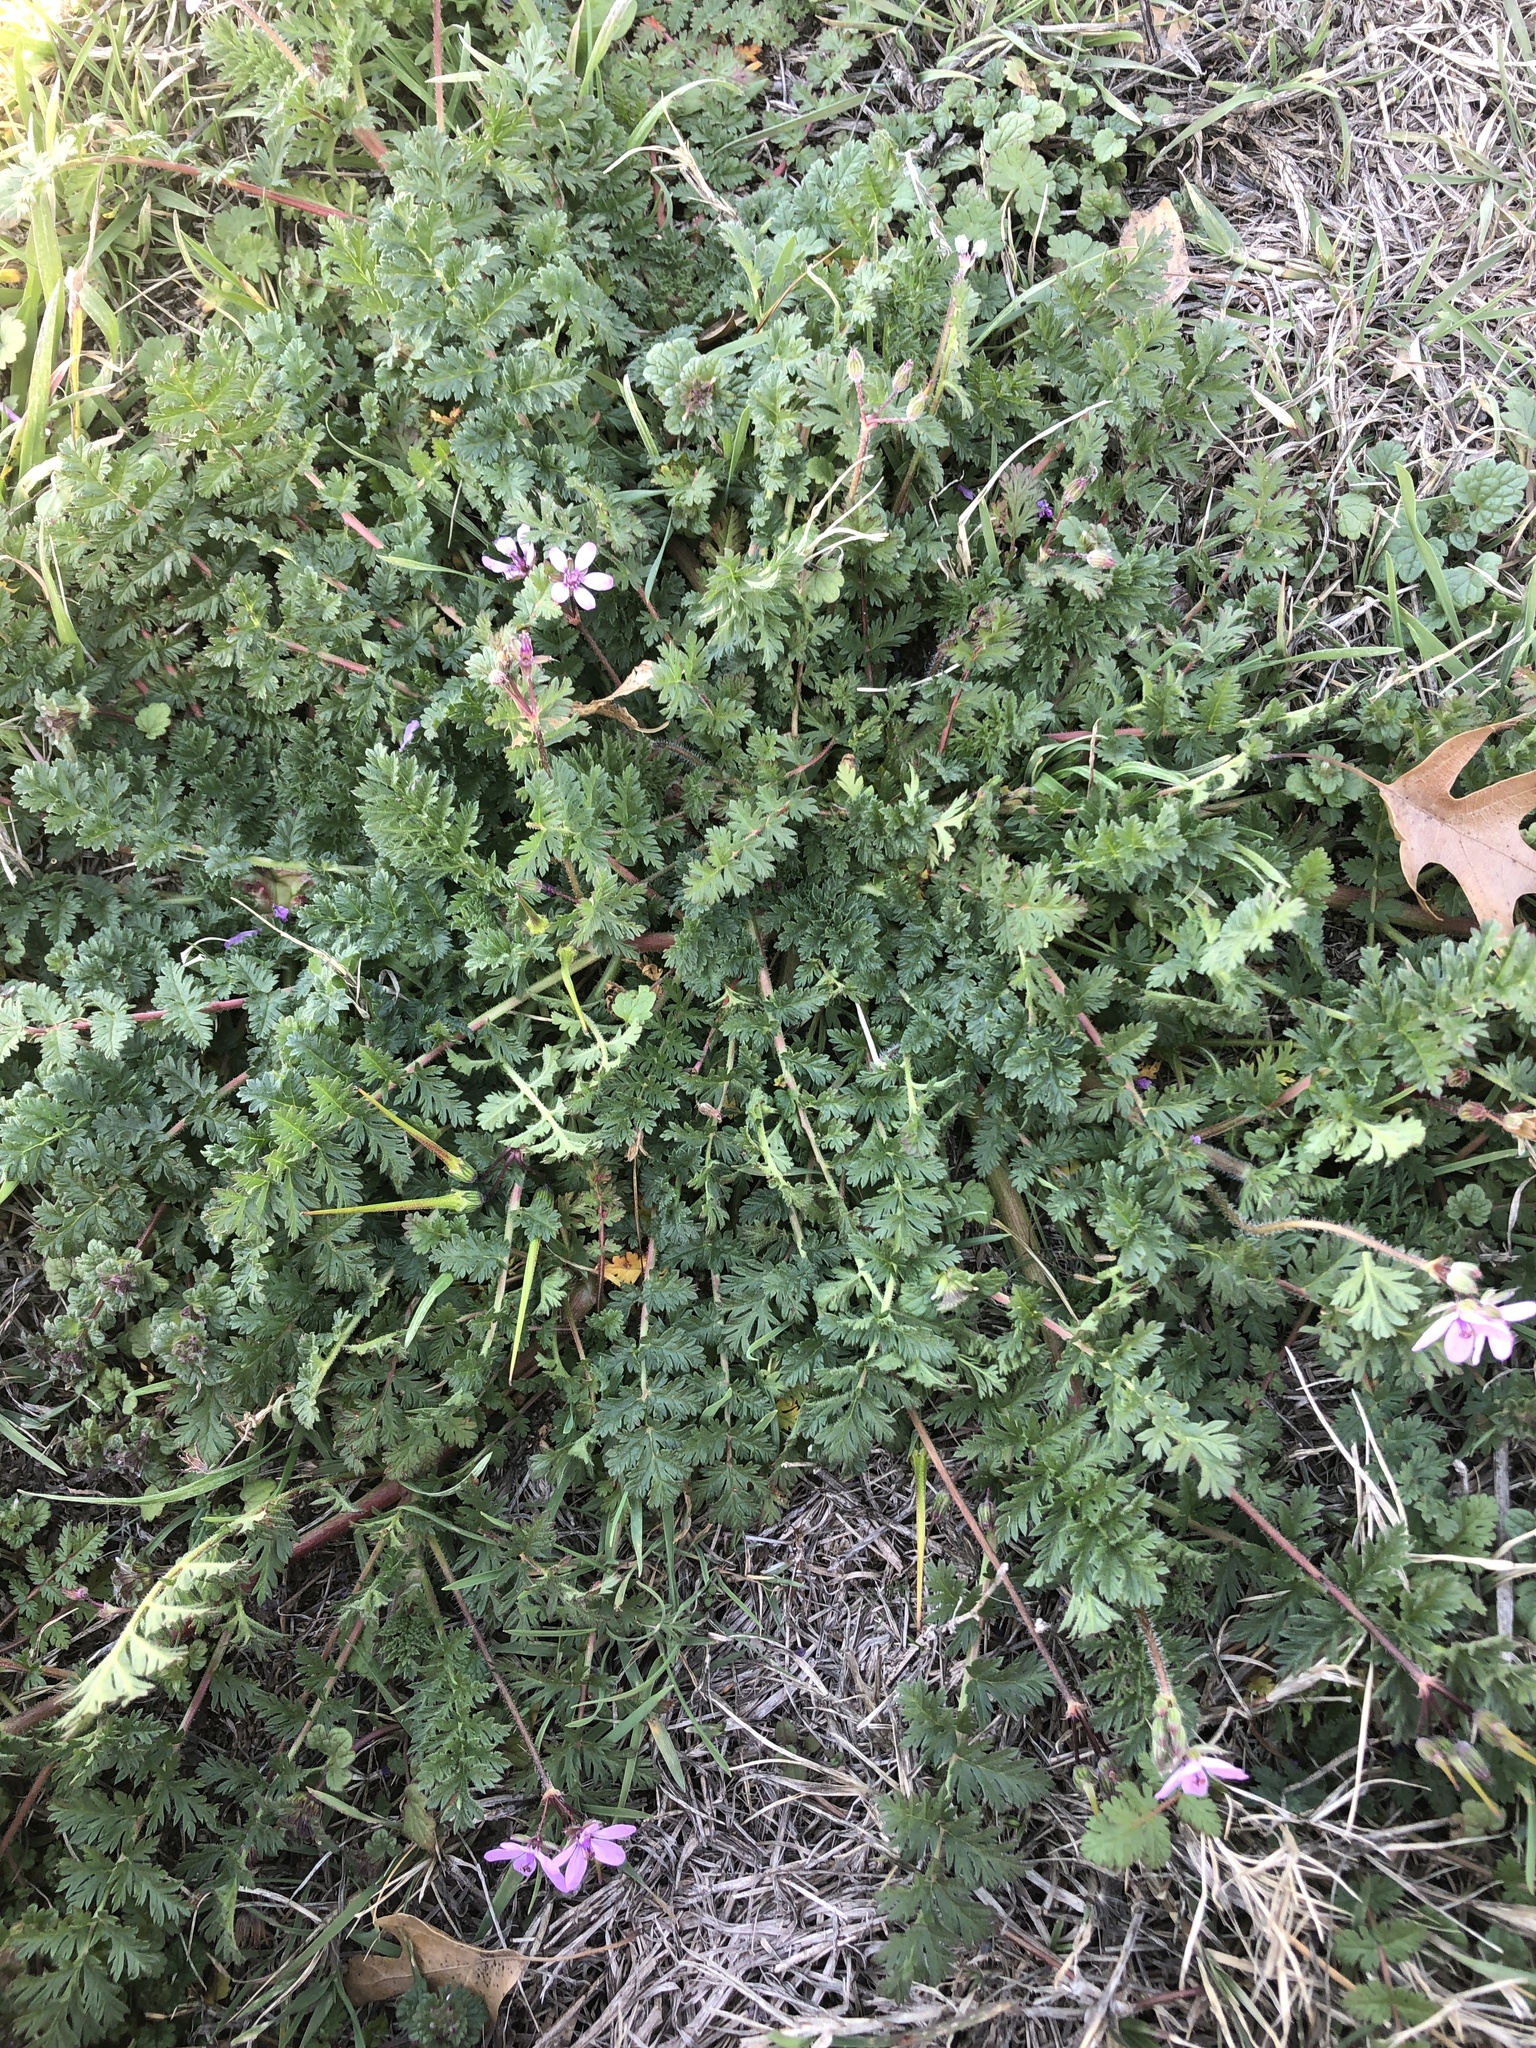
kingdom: Plantae
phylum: Tracheophyta
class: Magnoliopsida
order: Geraniales
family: Geraniaceae
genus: Erodium
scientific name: Erodium cicutarium
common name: Common stork's-bill
